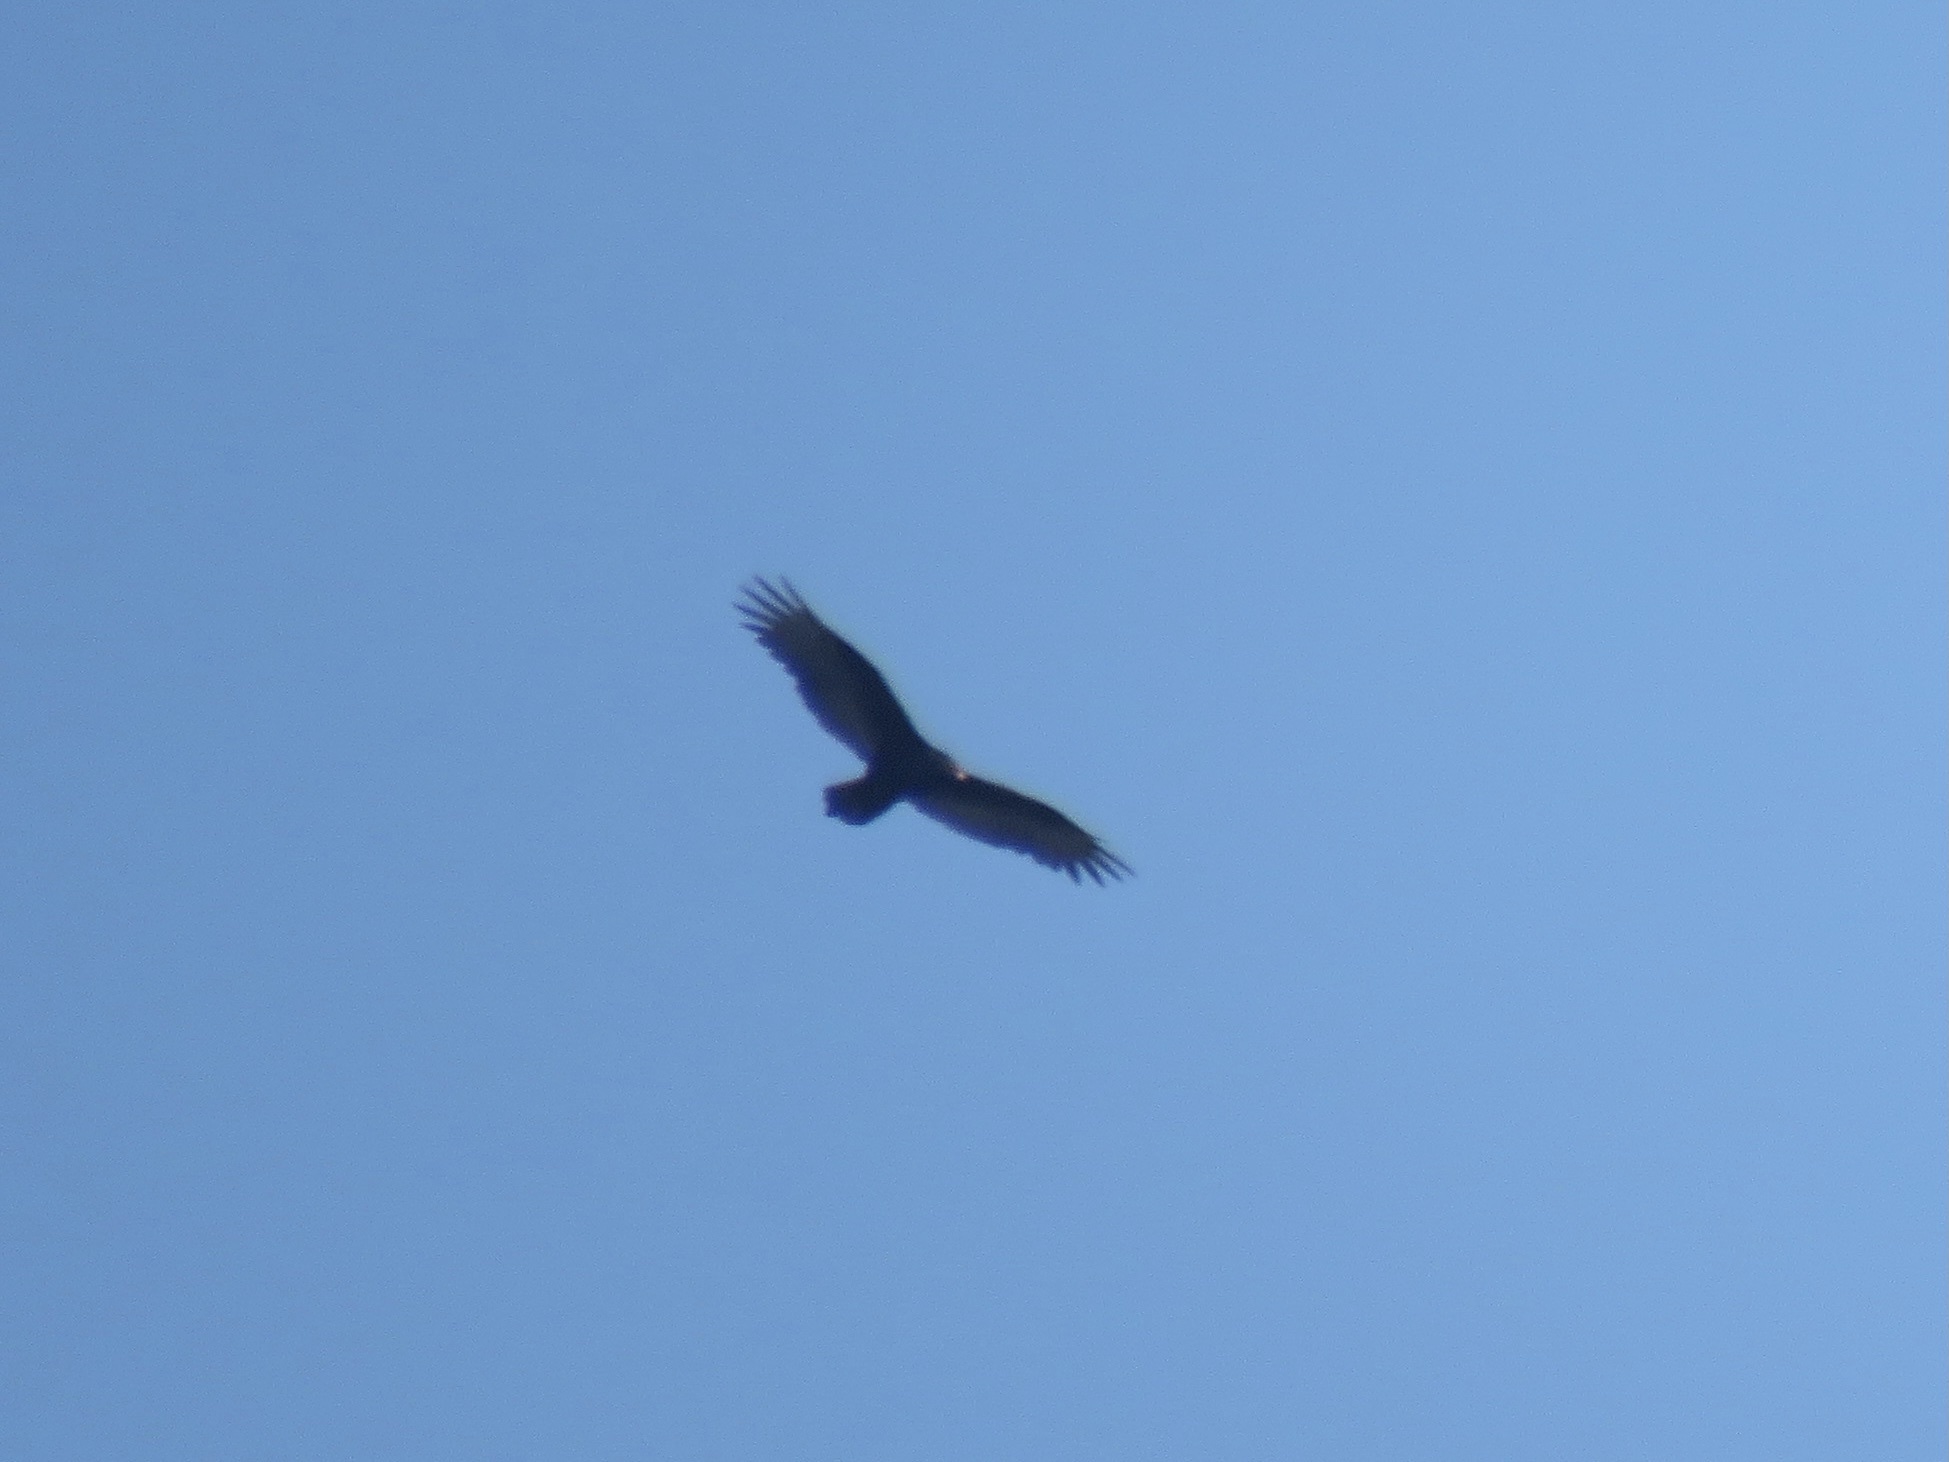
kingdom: Animalia
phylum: Chordata
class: Aves
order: Accipitriformes
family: Cathartidae
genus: Cathartes
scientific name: Cathartes aura
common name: Turkey vulture
